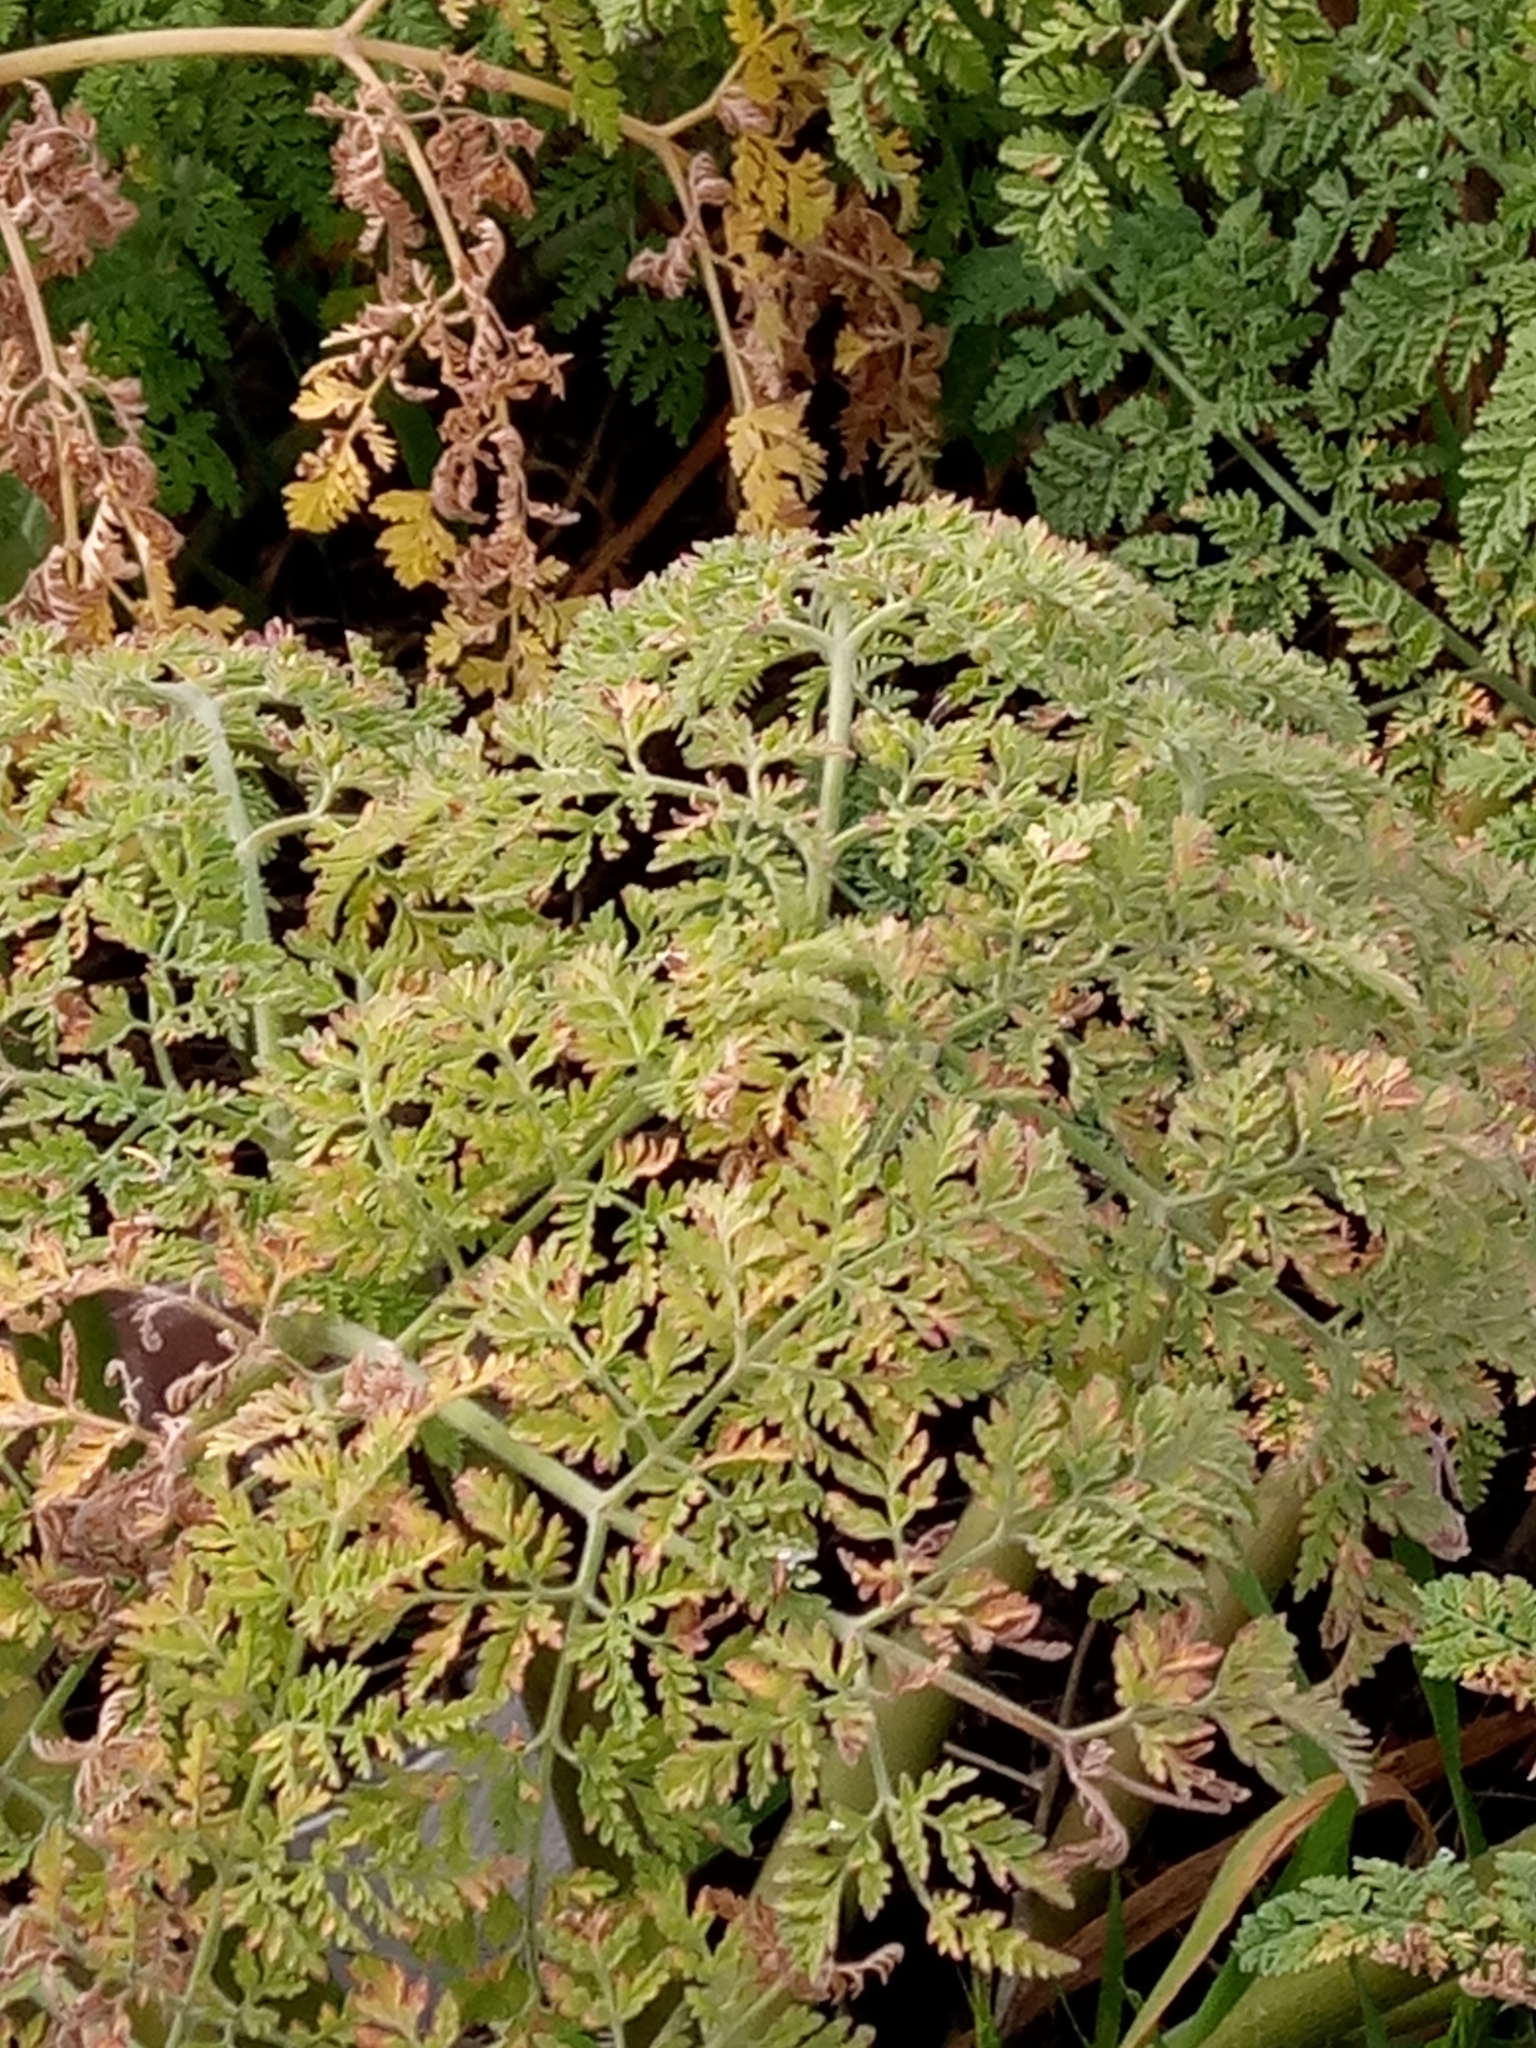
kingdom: Plantae
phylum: Tracheophyta
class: Magnoliopsida
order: Apiales
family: Apiaceae
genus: Athamanta
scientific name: Athamanta sicula
